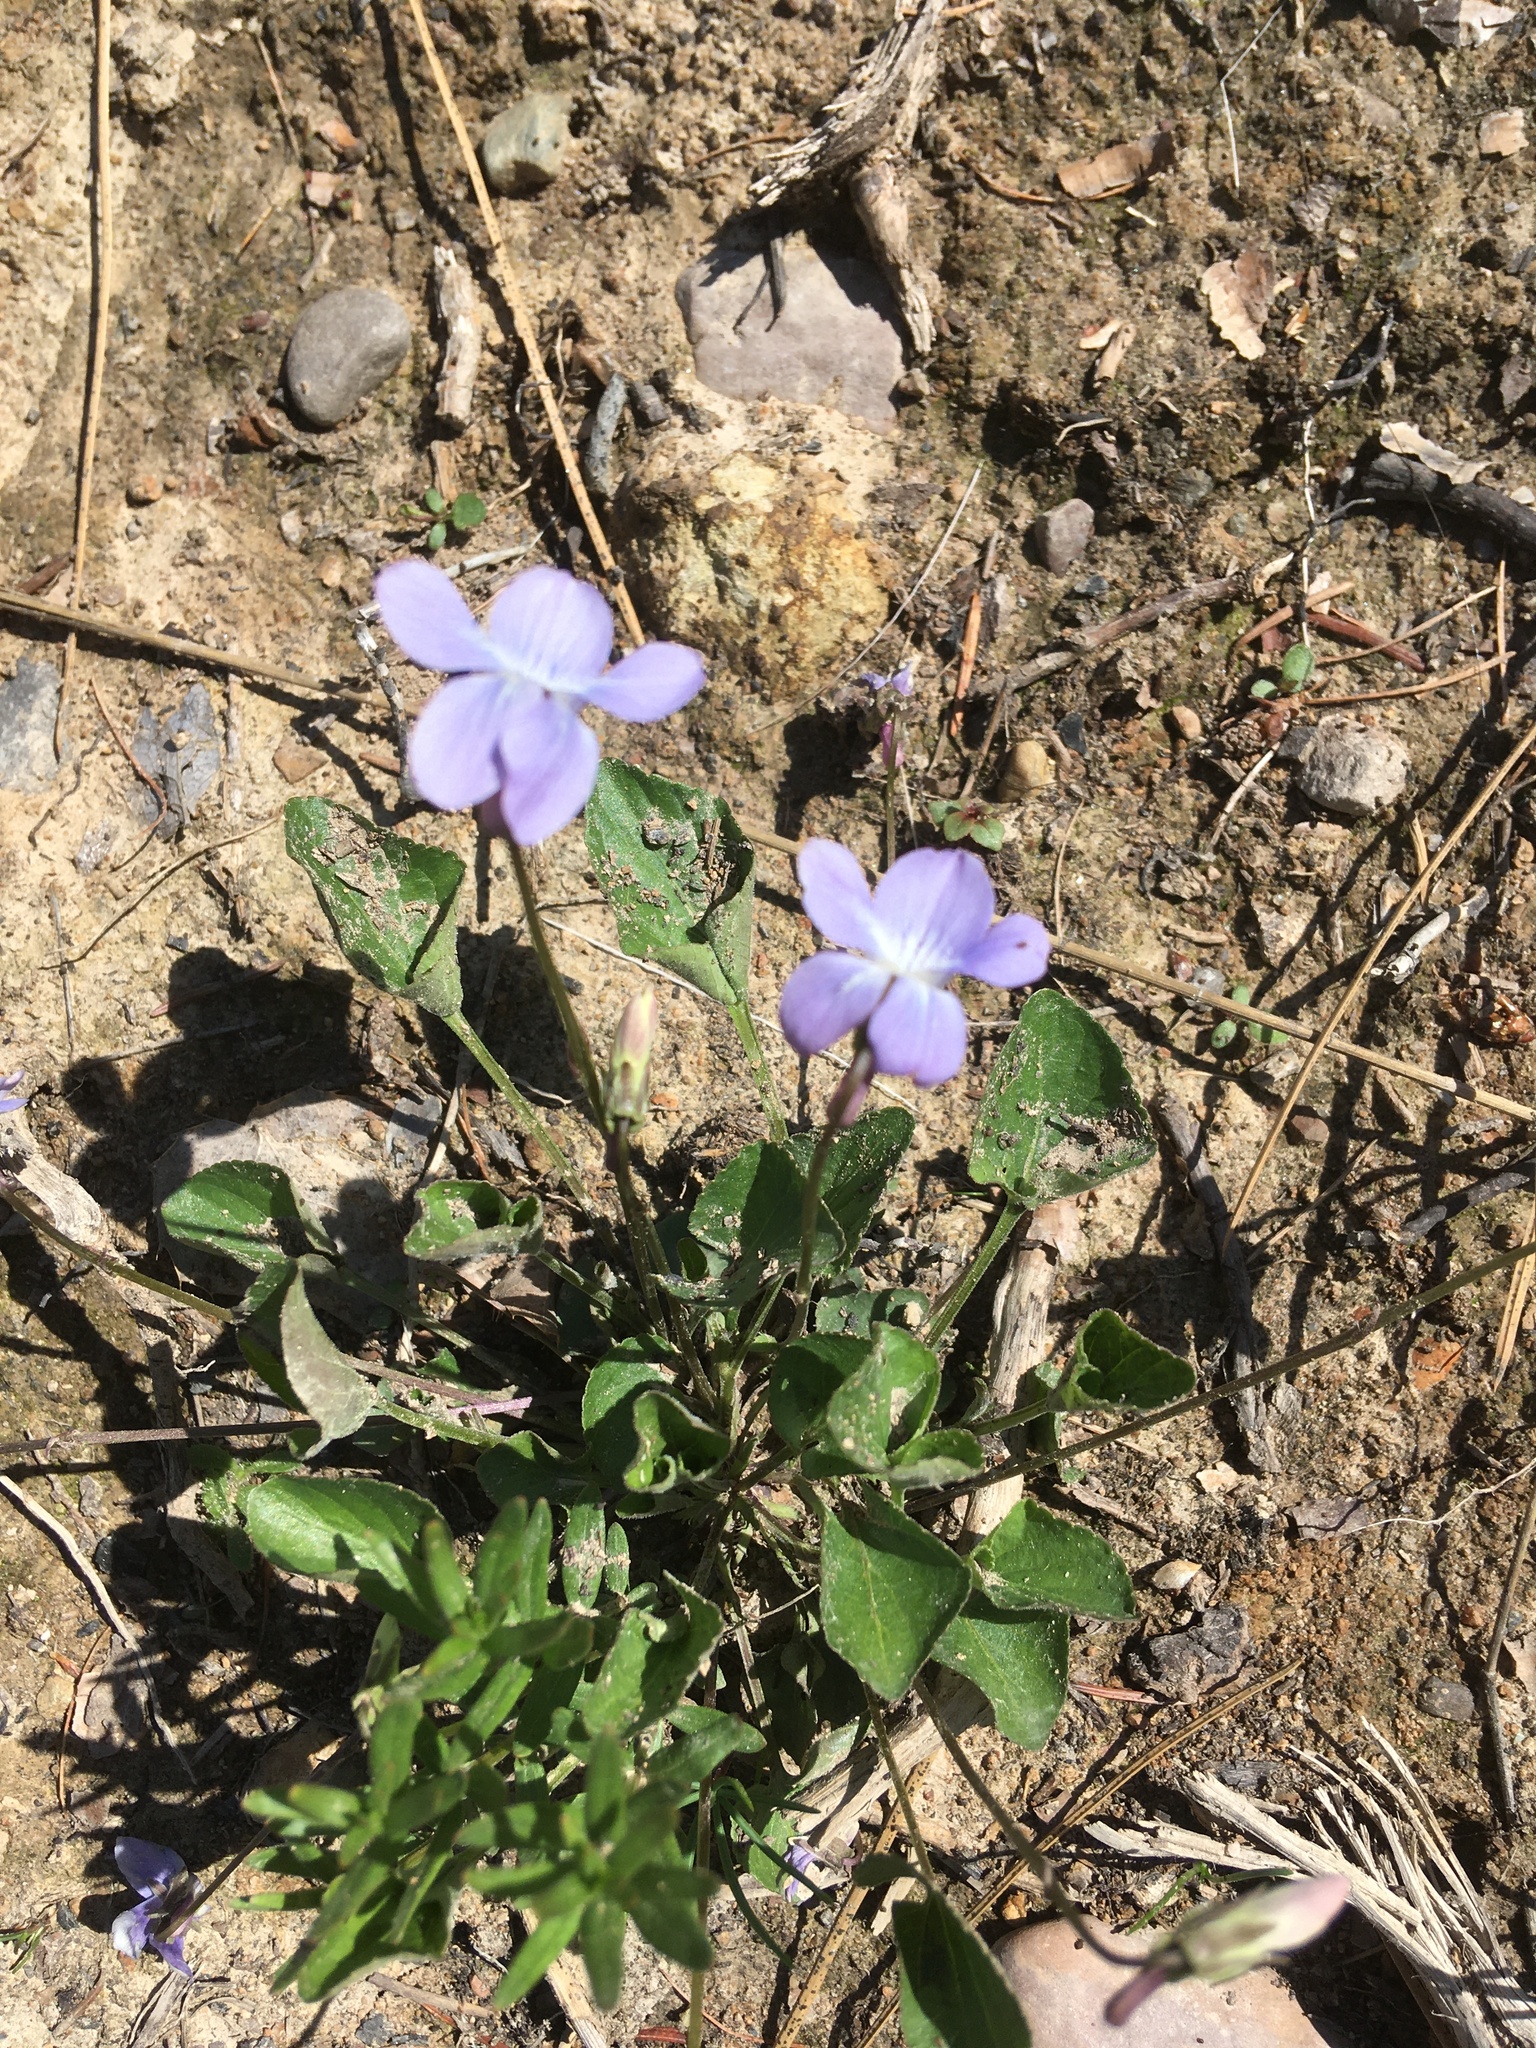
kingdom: Plantae
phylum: Tracheophyta
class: Magnoliopsida
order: Malpighiales
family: Violaceae
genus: Viola
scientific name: Viola adunca
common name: Sand violet
